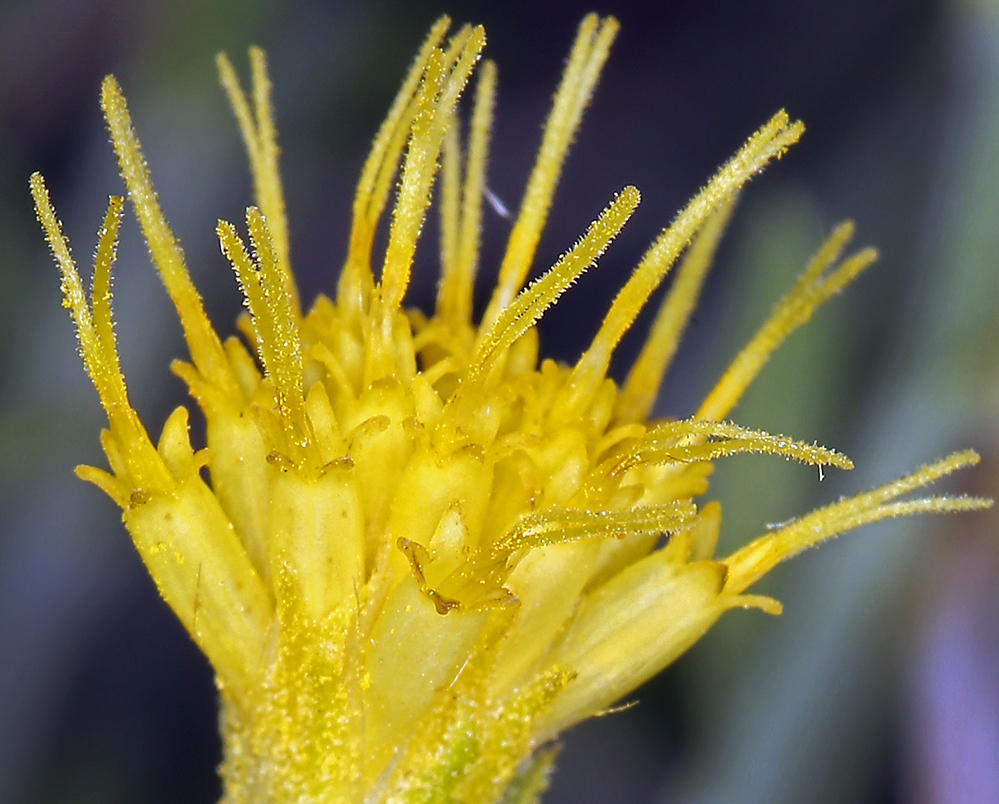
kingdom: Plantae
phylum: Tracheophyta
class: Magnoliopsida
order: Asterales
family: Asteraceae
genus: Ericameria
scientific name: Ericameria discoidea
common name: Sharp-scale goldenweed
